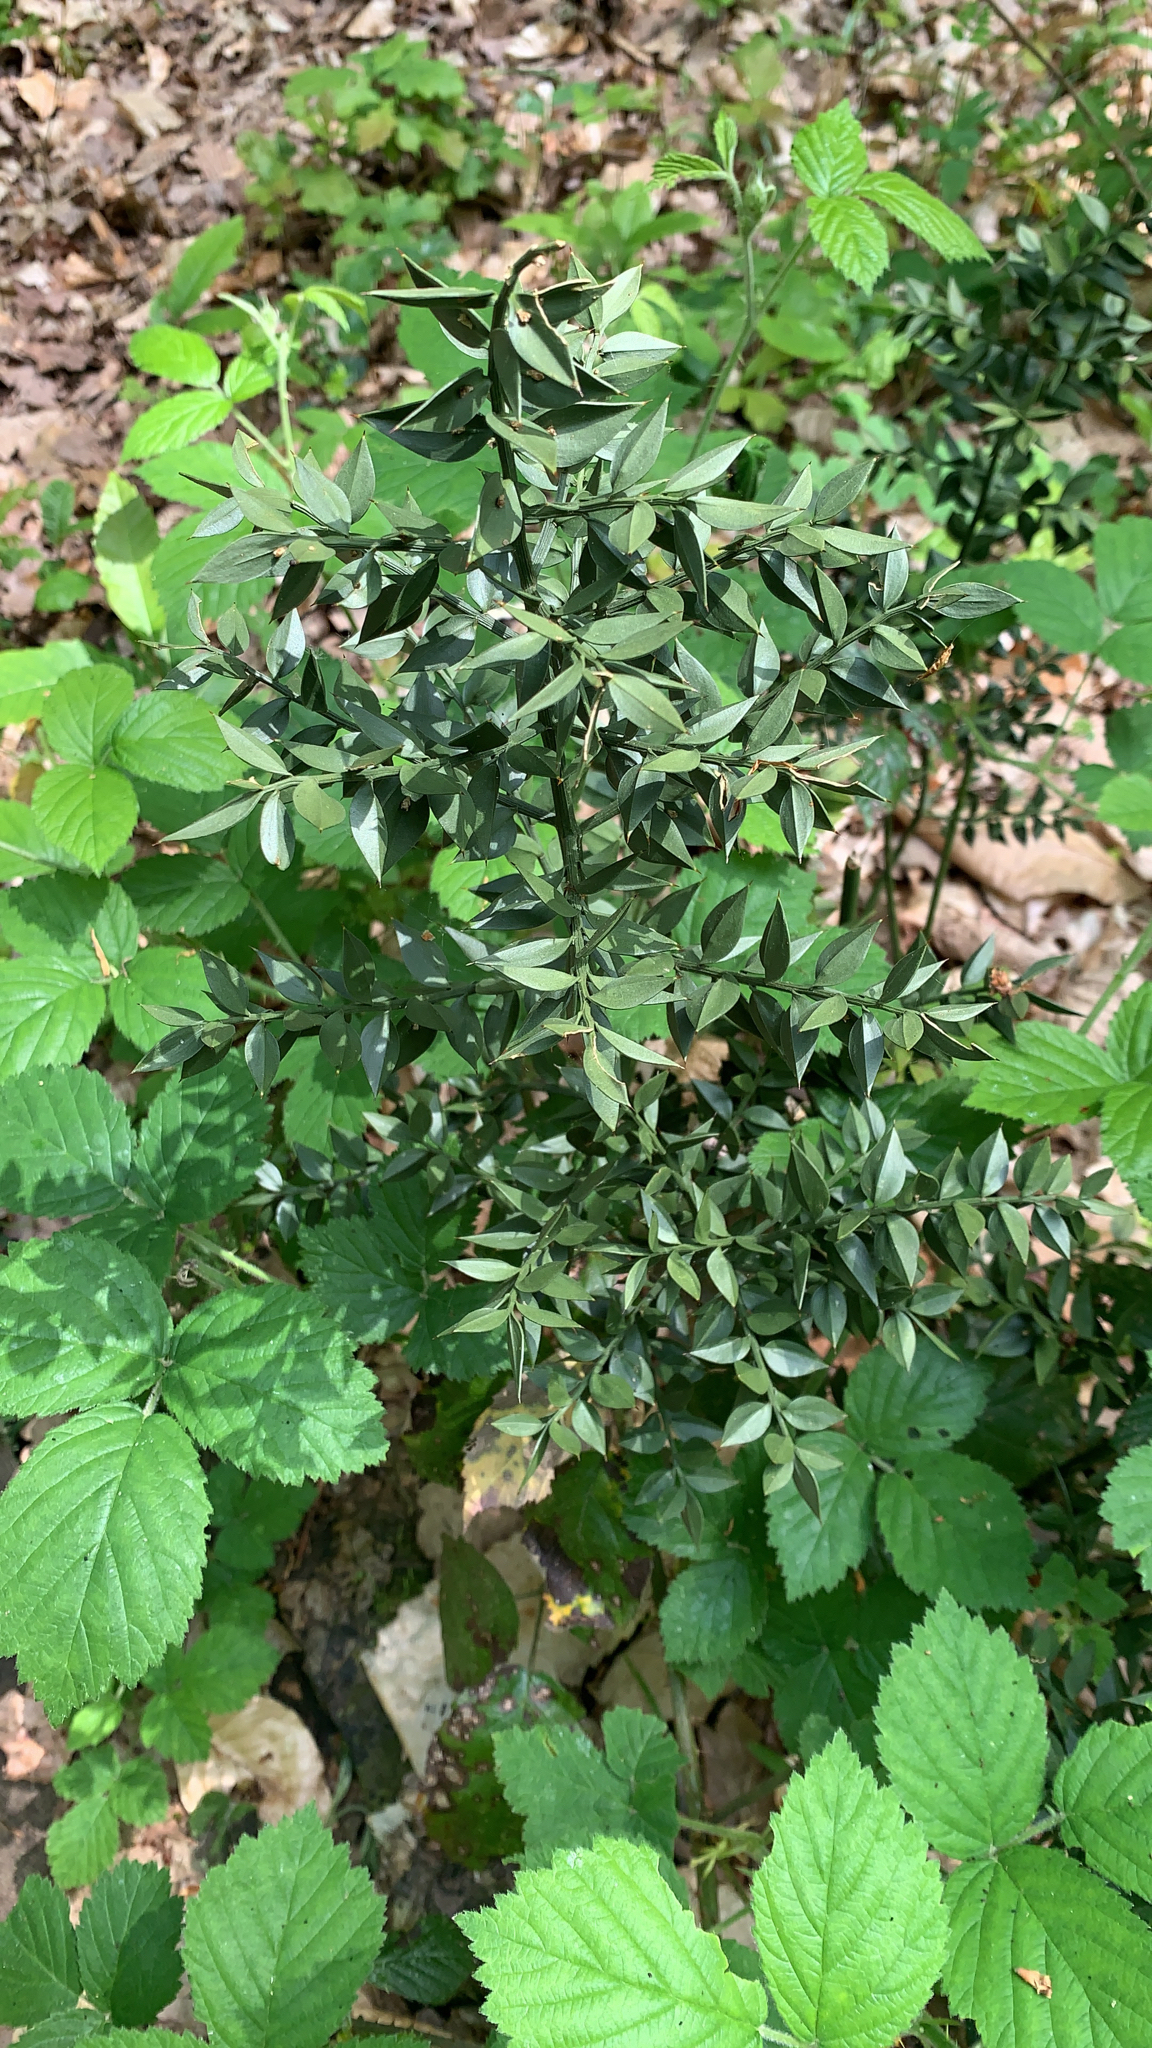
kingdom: Plantae
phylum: Tracheophyta
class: Liliopsida
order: Asparagales
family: Asparagaceae
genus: Ruscus
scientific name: Ruscus aculeatus
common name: Butcher's-broom
